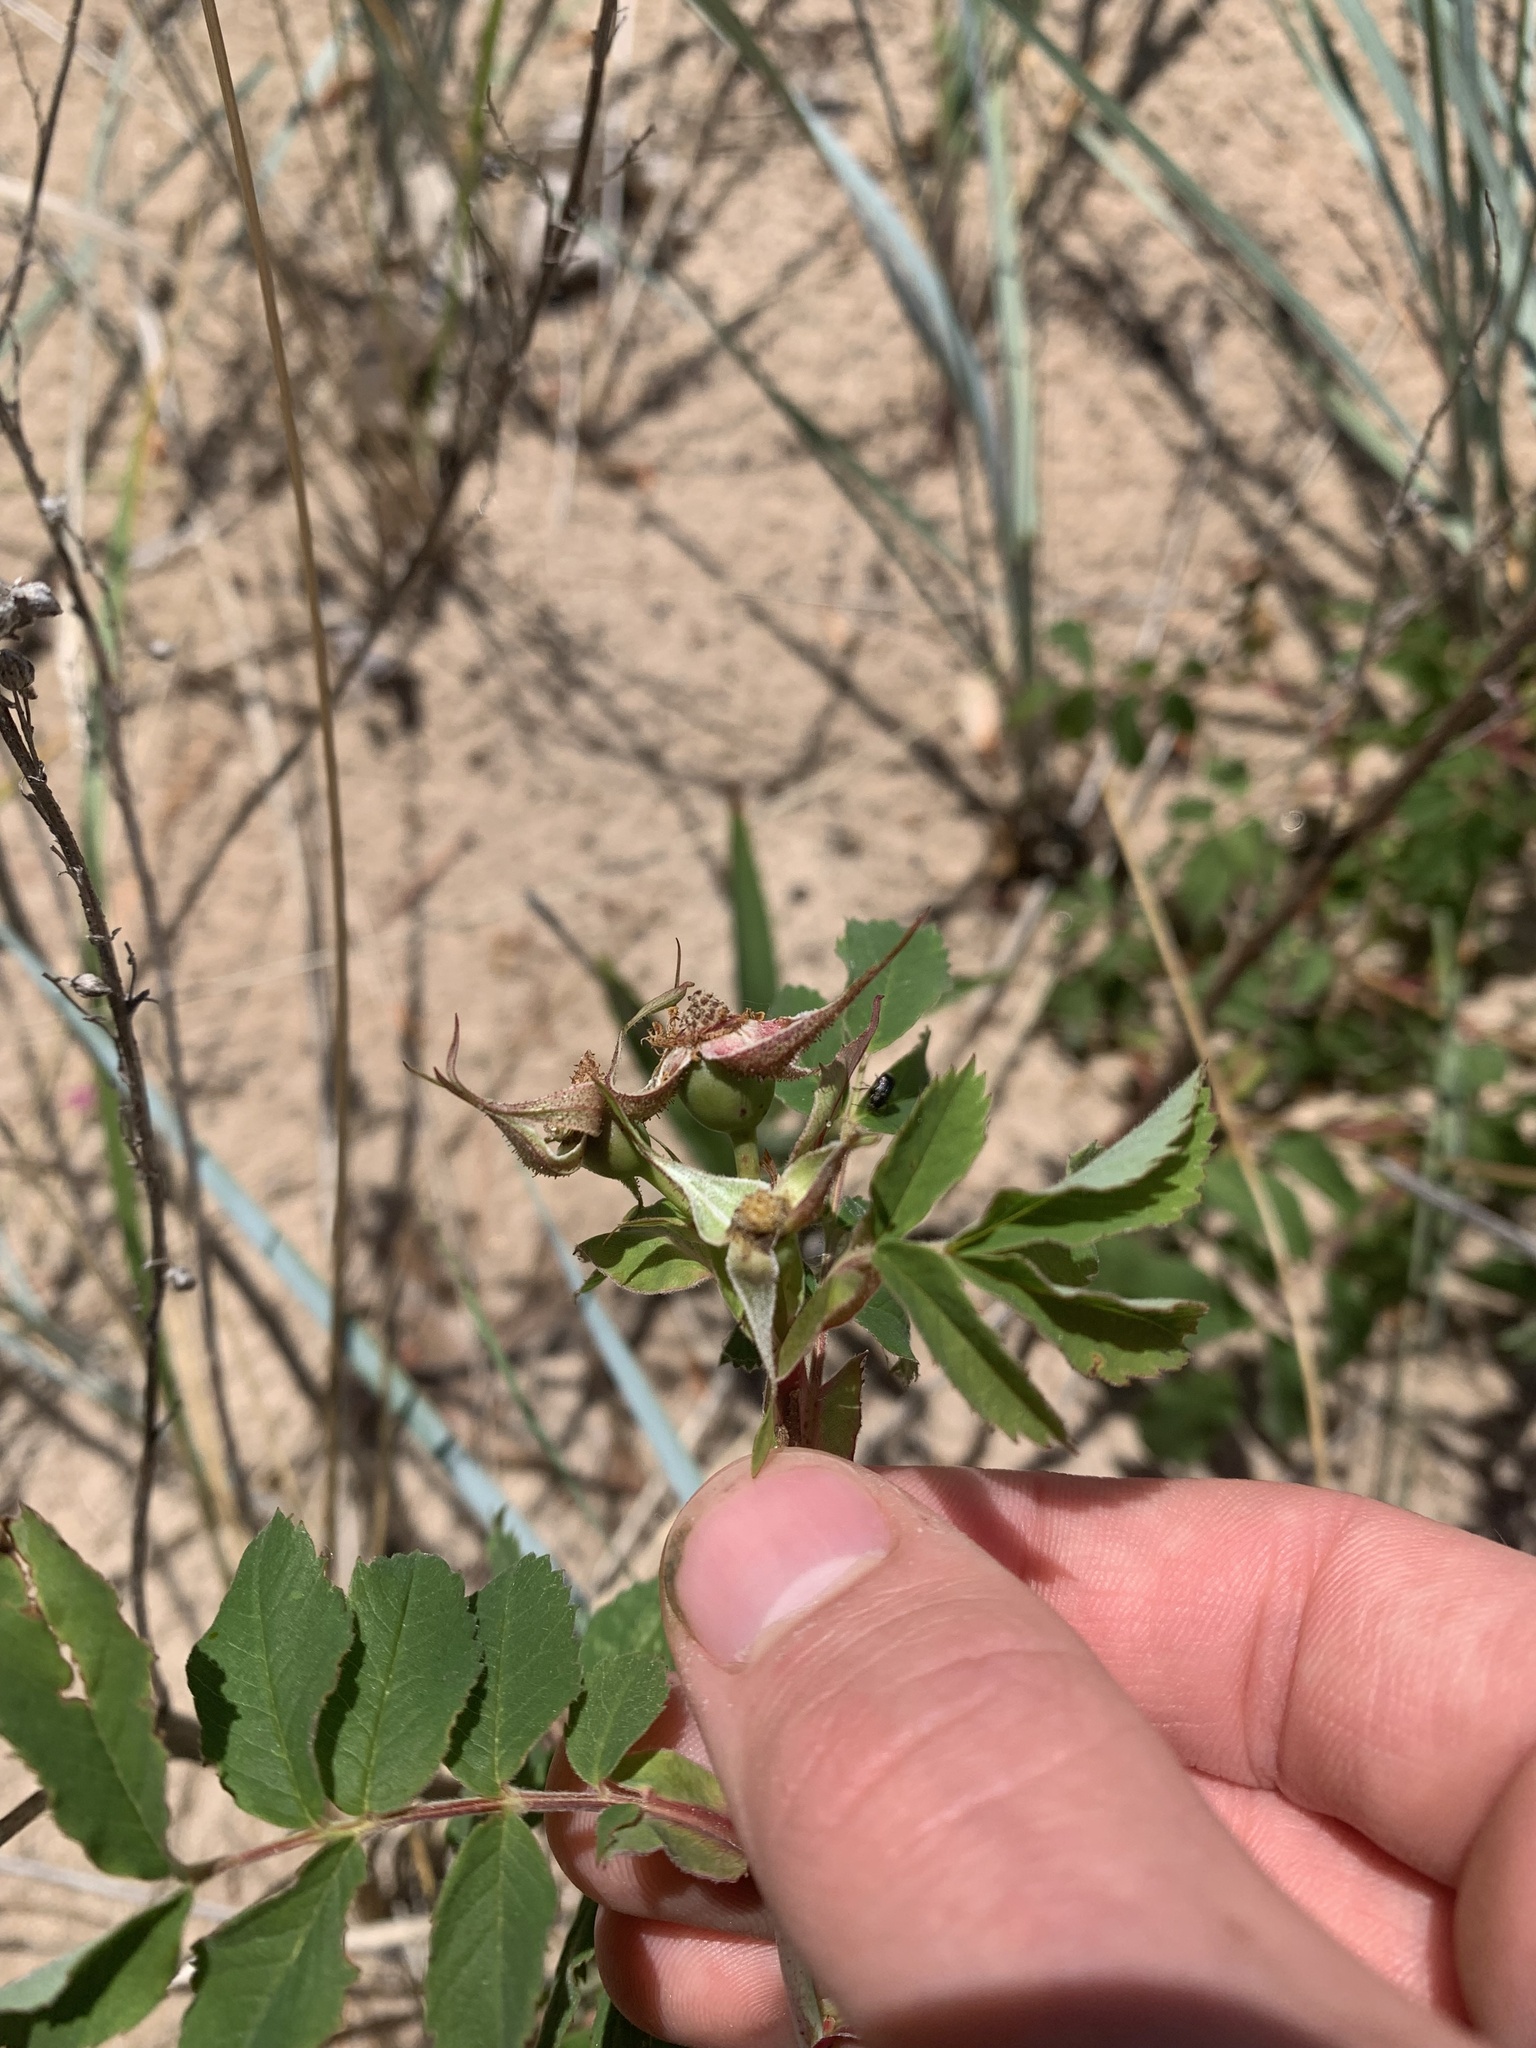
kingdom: Plantae
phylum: Tracheophyta
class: Magnoliopsida
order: Rosales
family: Rosaceae
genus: Rosa
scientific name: Rosa blanda
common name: Smooth rose
